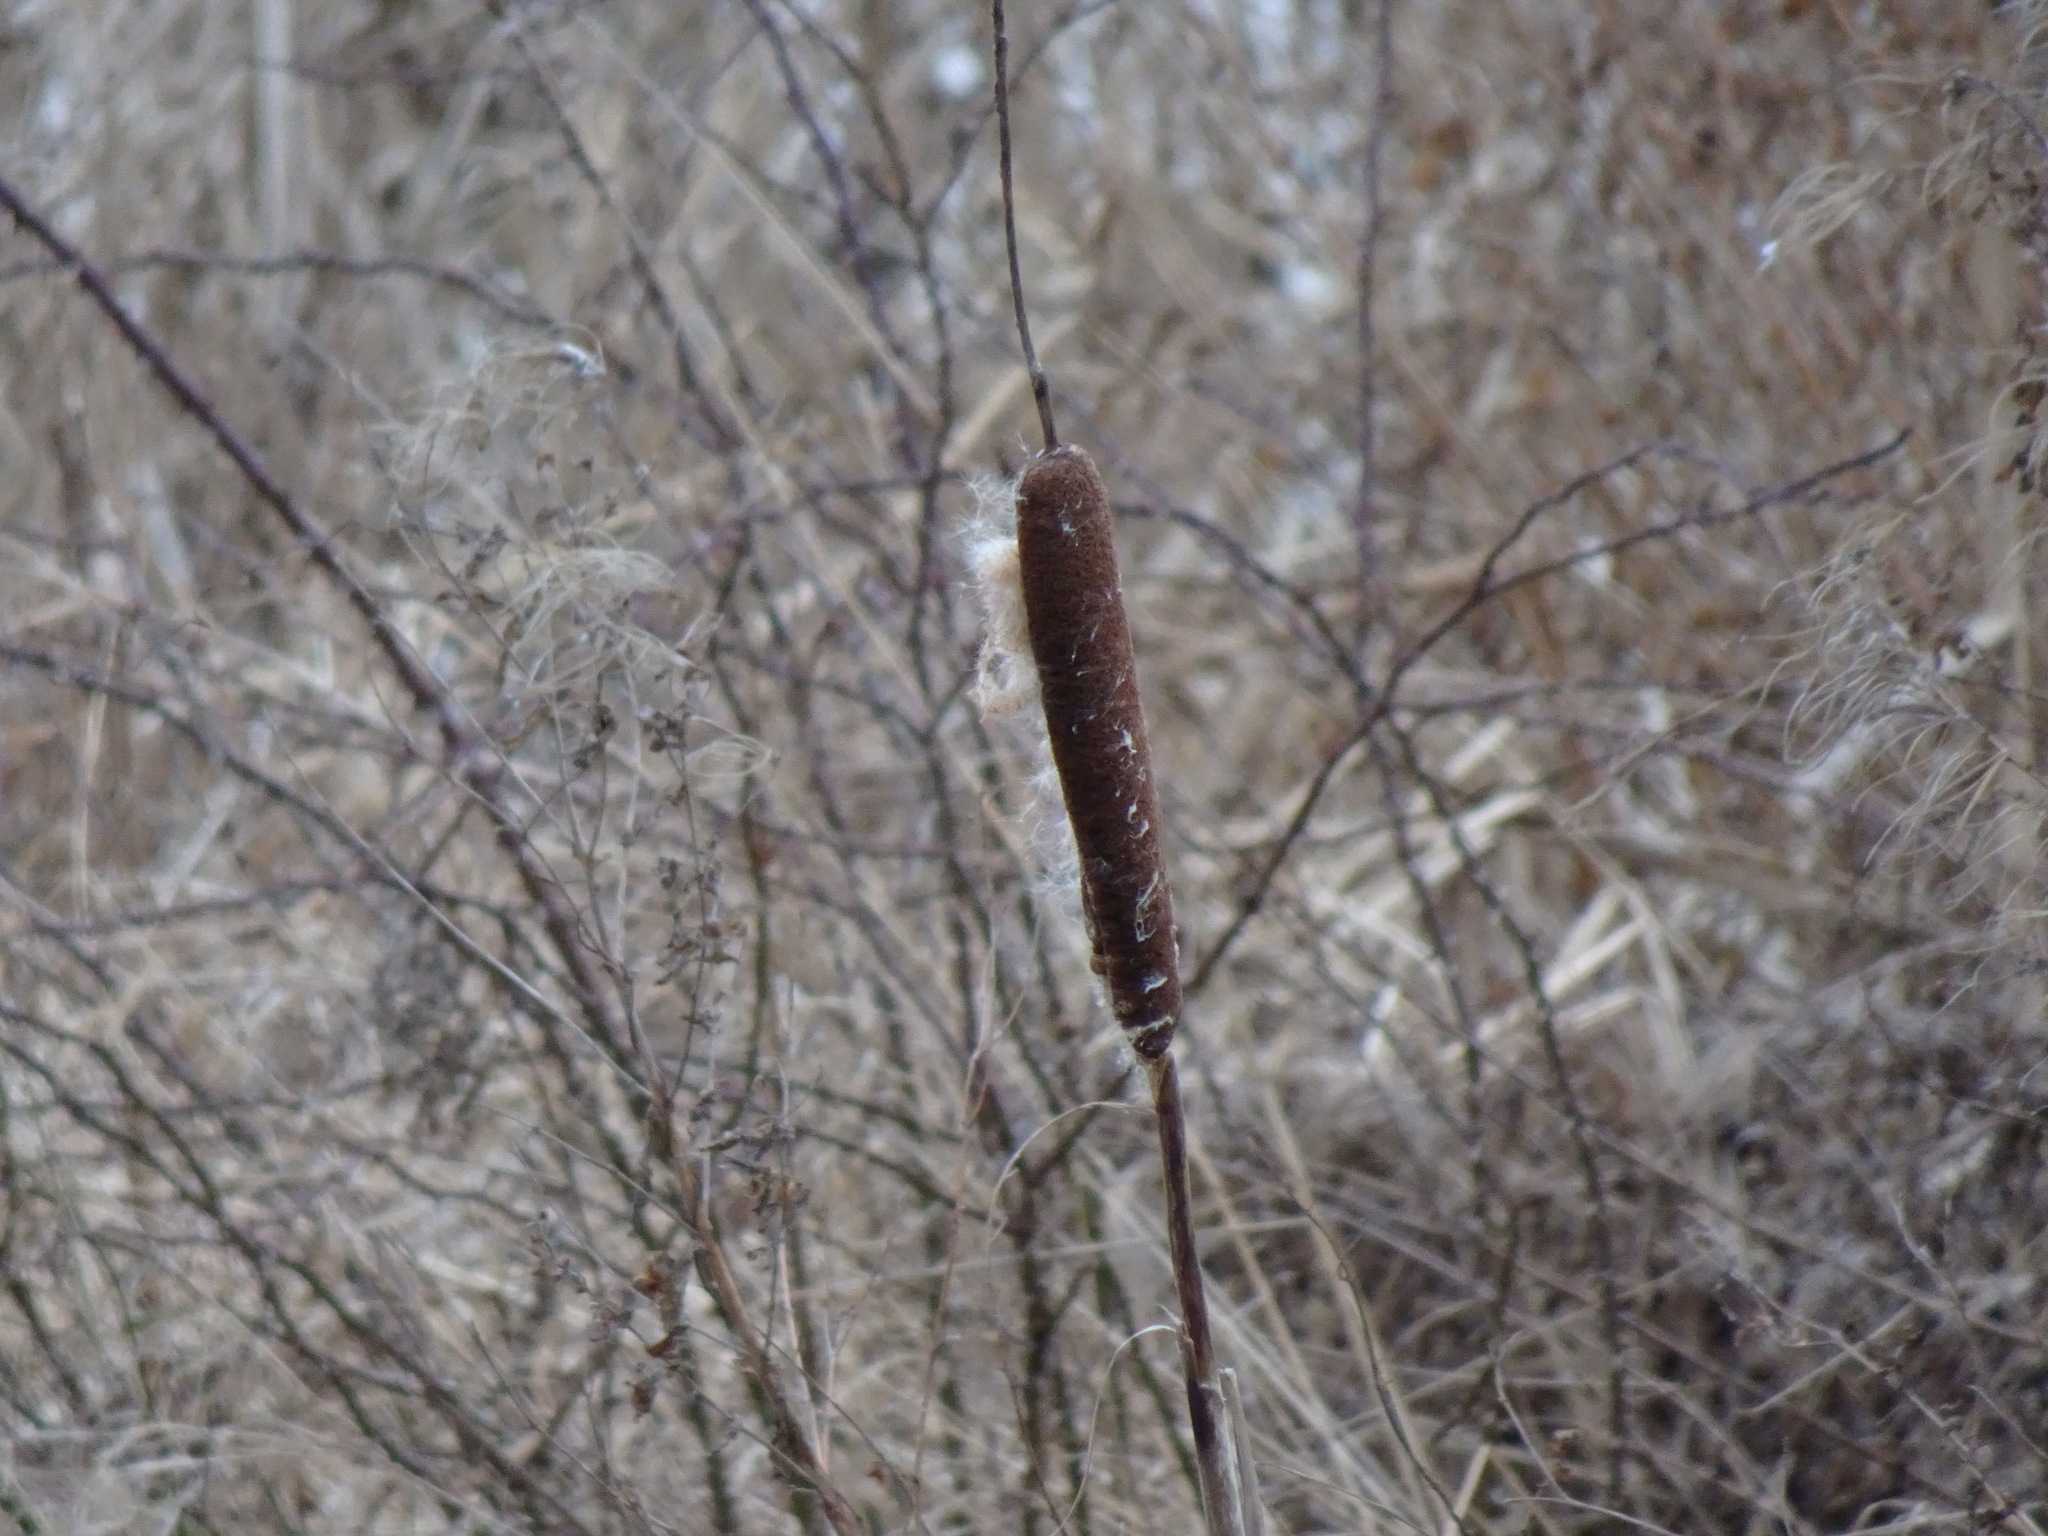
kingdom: Plantae
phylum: Tracheophyta
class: Liliopsida
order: Poales
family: Typhaceae
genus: Typha
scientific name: Typha latifolia
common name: Broadleaf cattail
